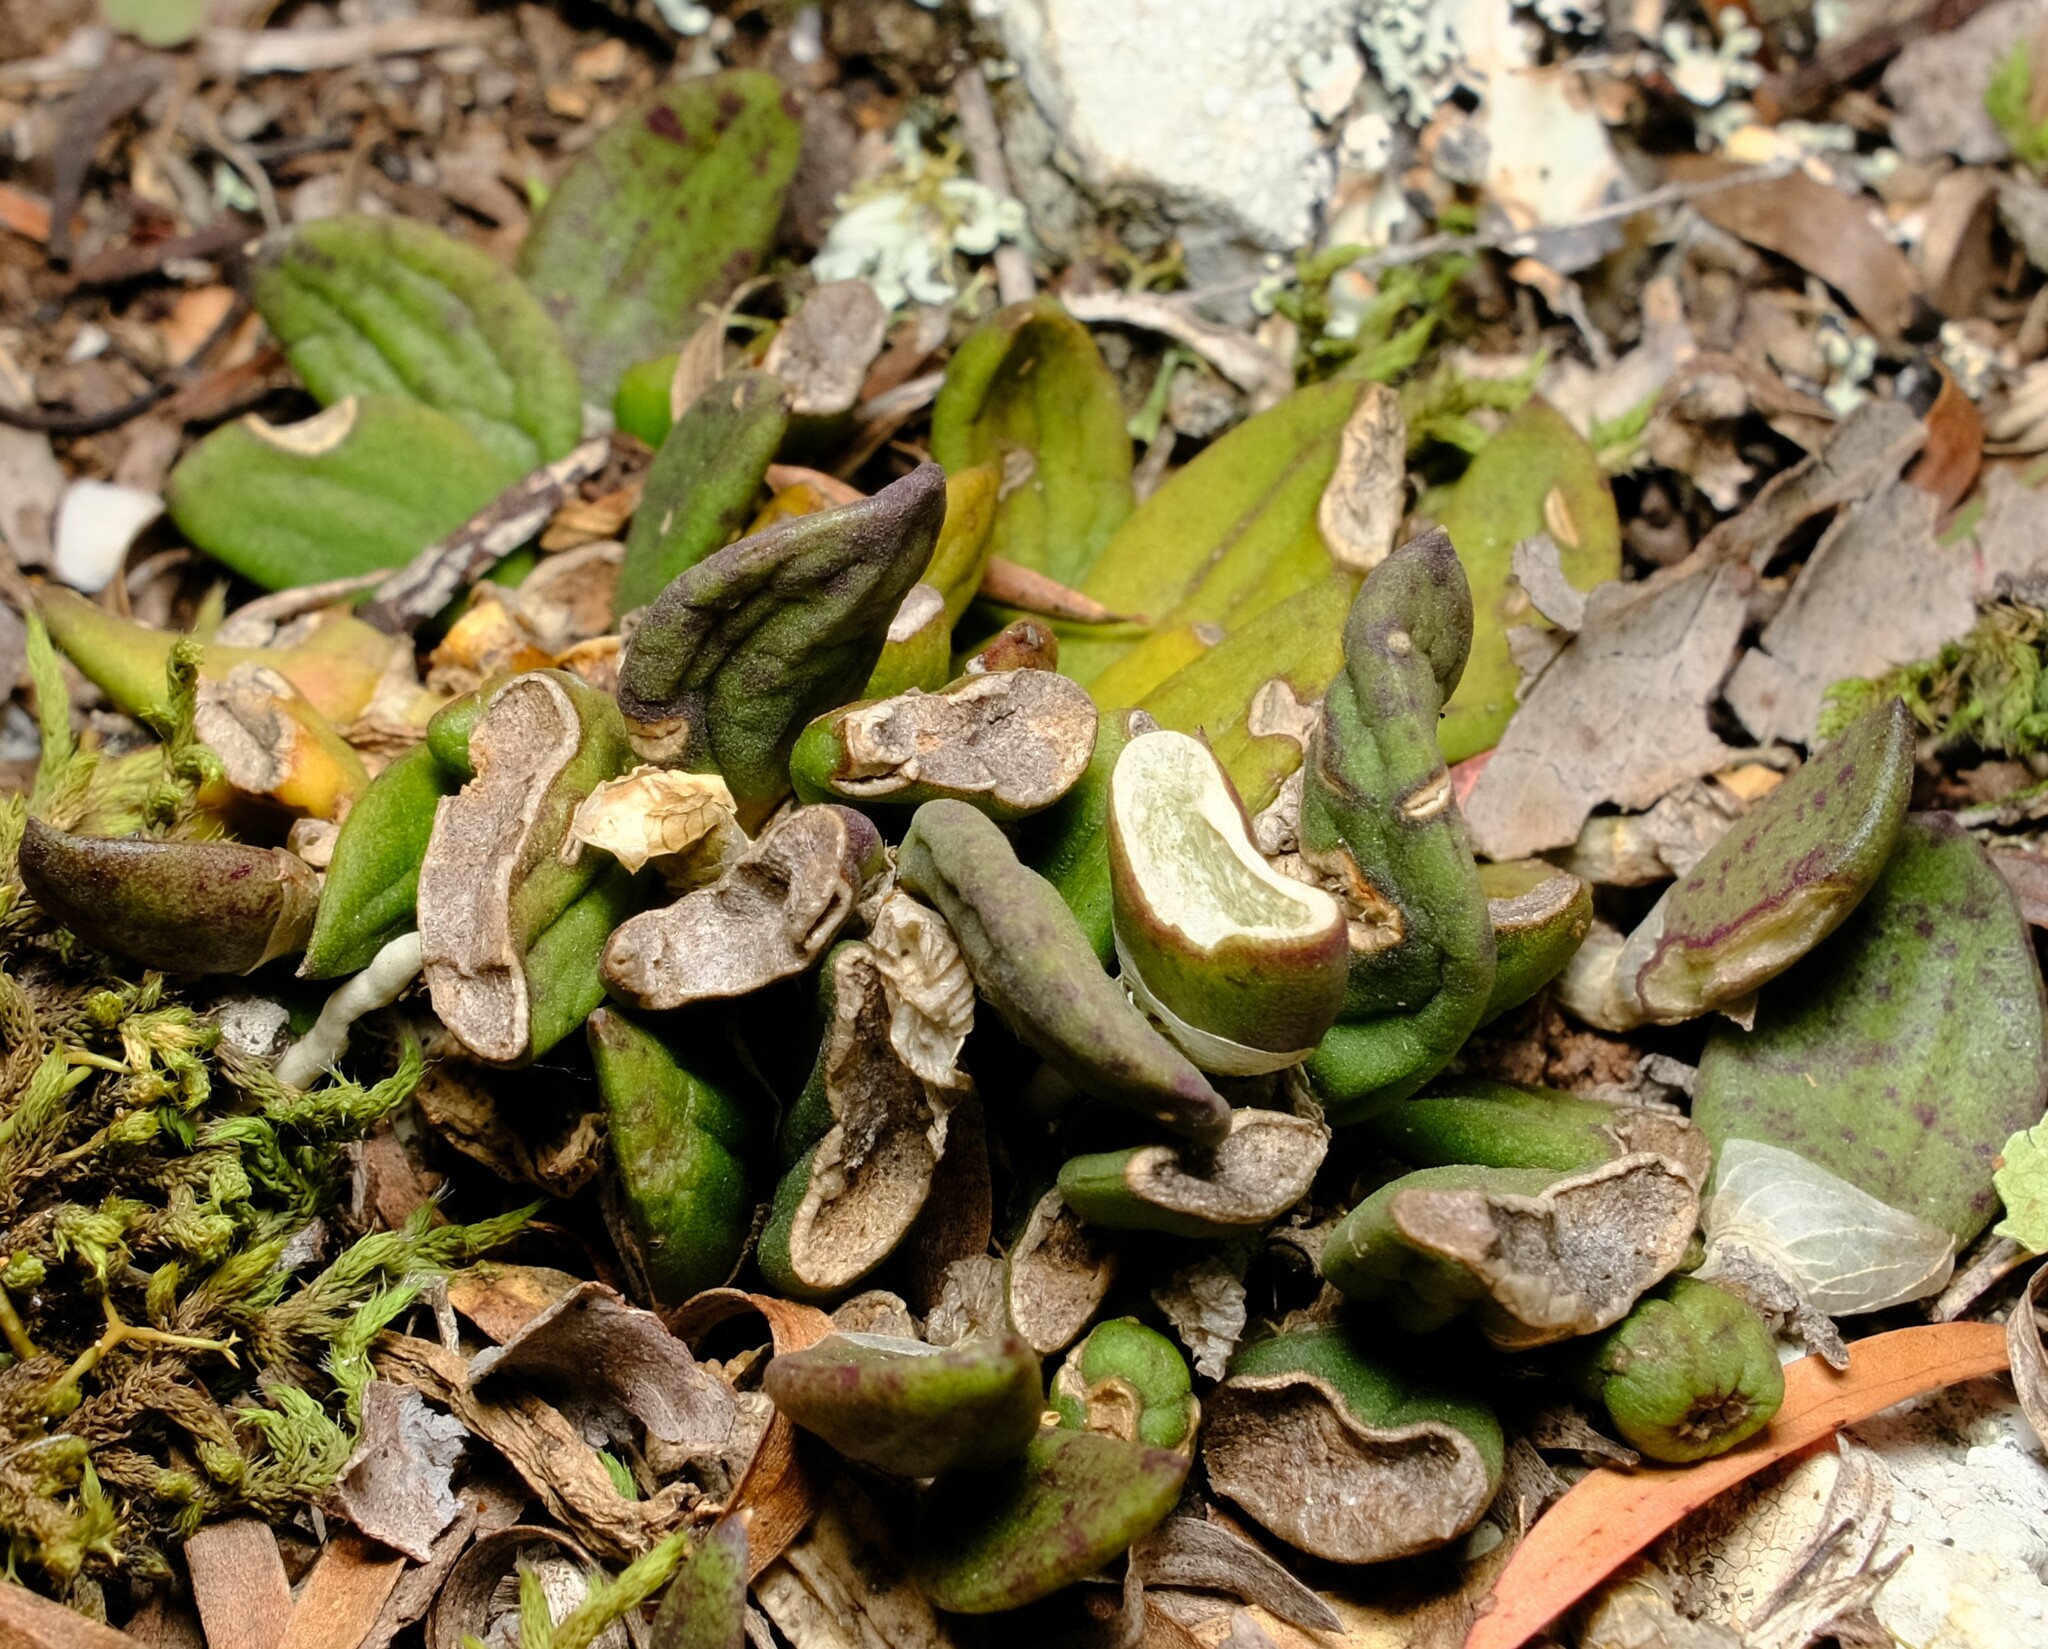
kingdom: Plantae
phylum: Tracheophyta
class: Liliopsida
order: Asparagales
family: Orchidaceae
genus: Dendrobium
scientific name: Dendrobium linguiforme
